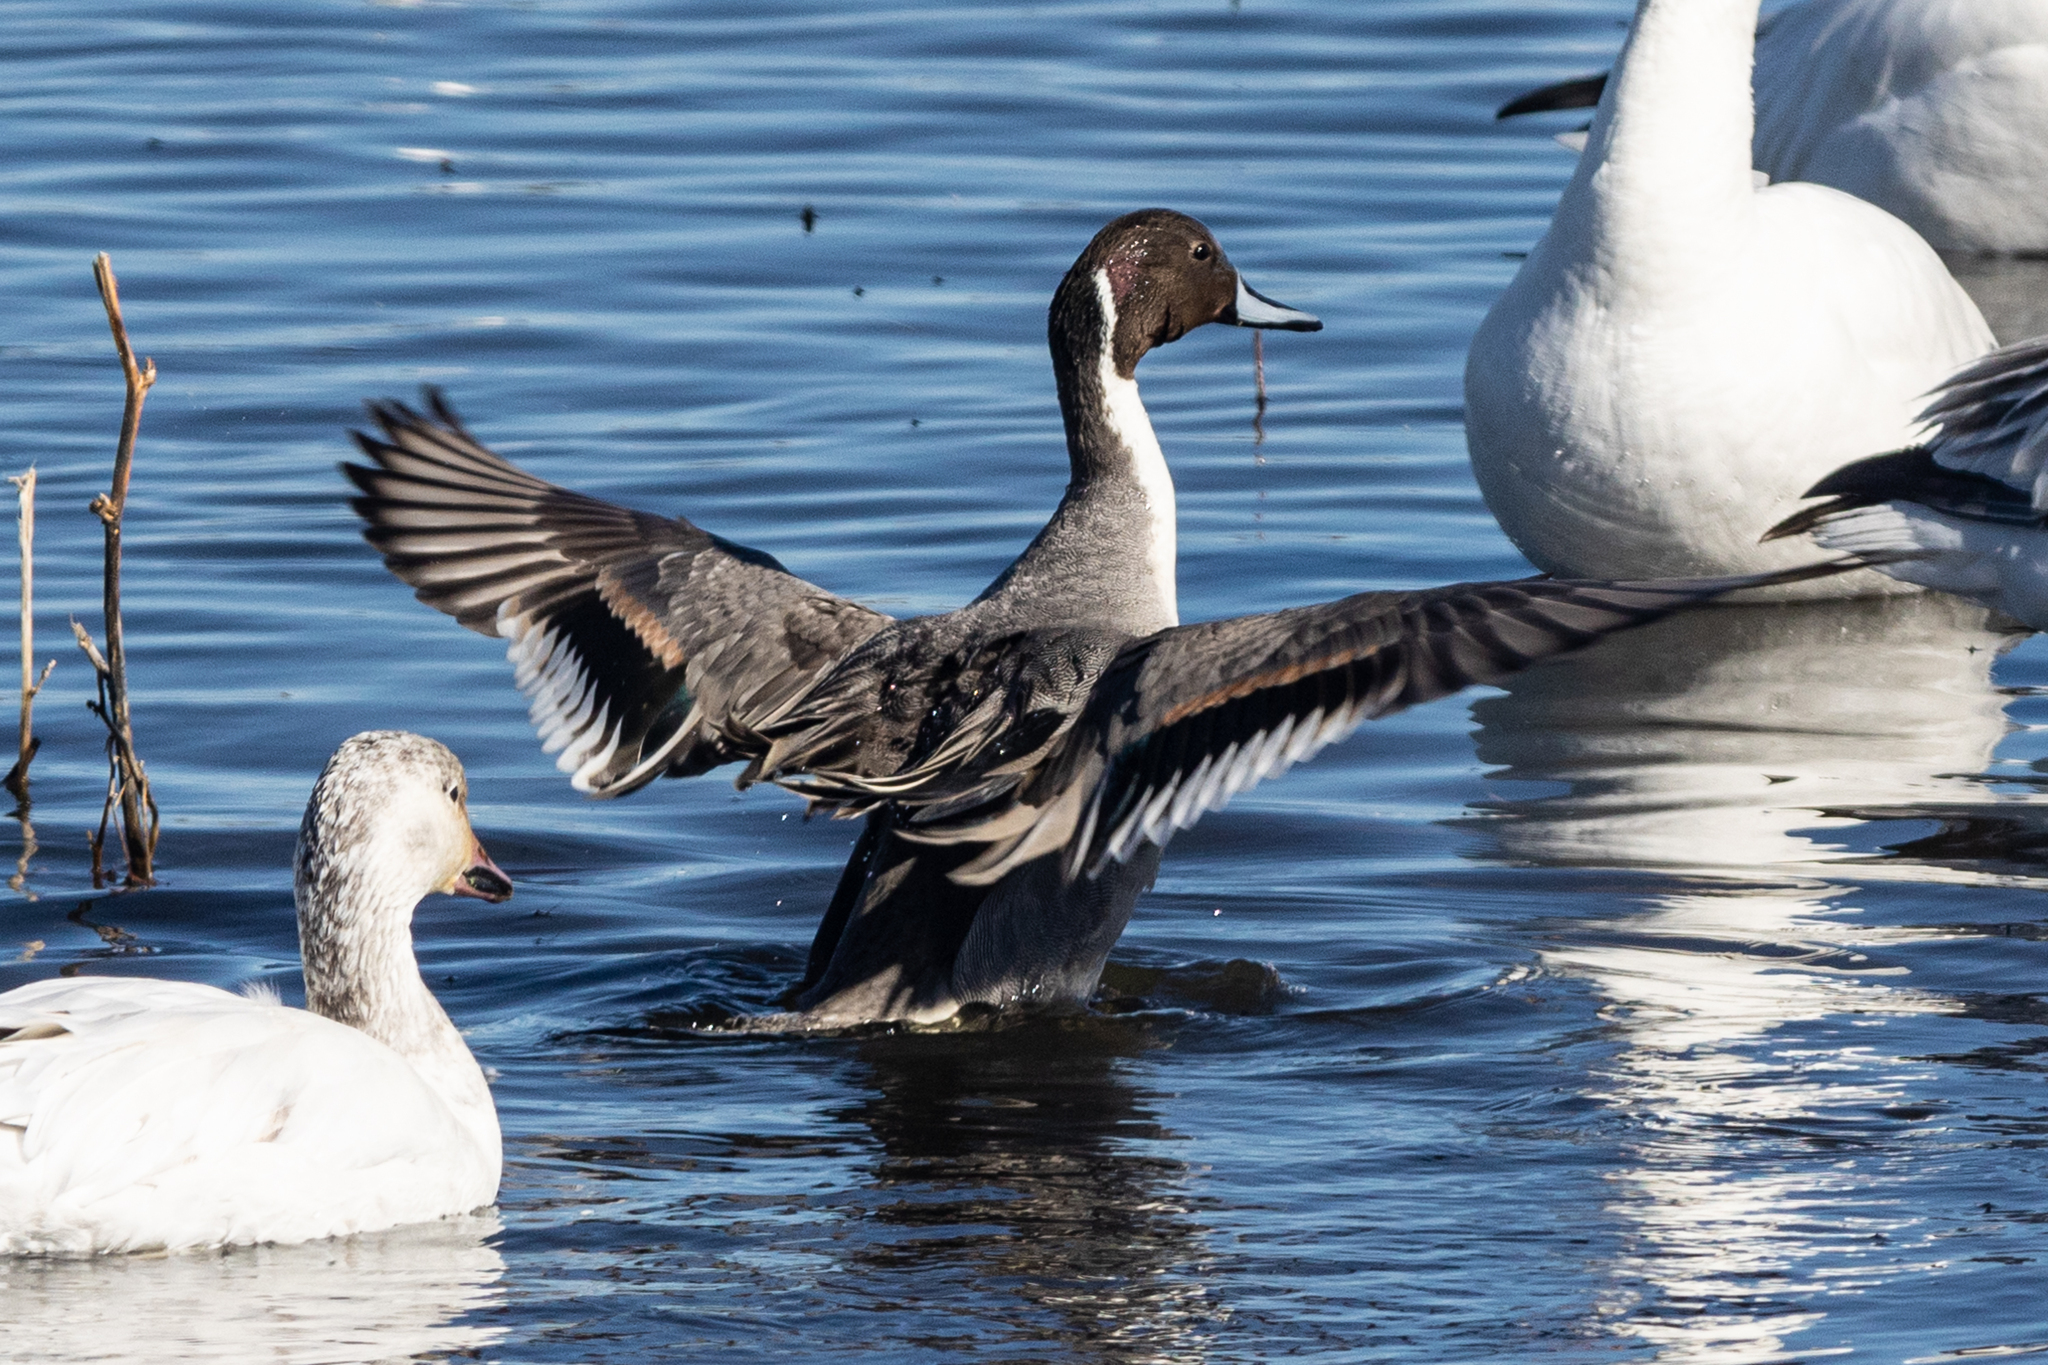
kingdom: Animalia
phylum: Chordata
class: Aves
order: Anseriformes
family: Anatidae
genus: Anas
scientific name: Anas acuta
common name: Northern pintail
